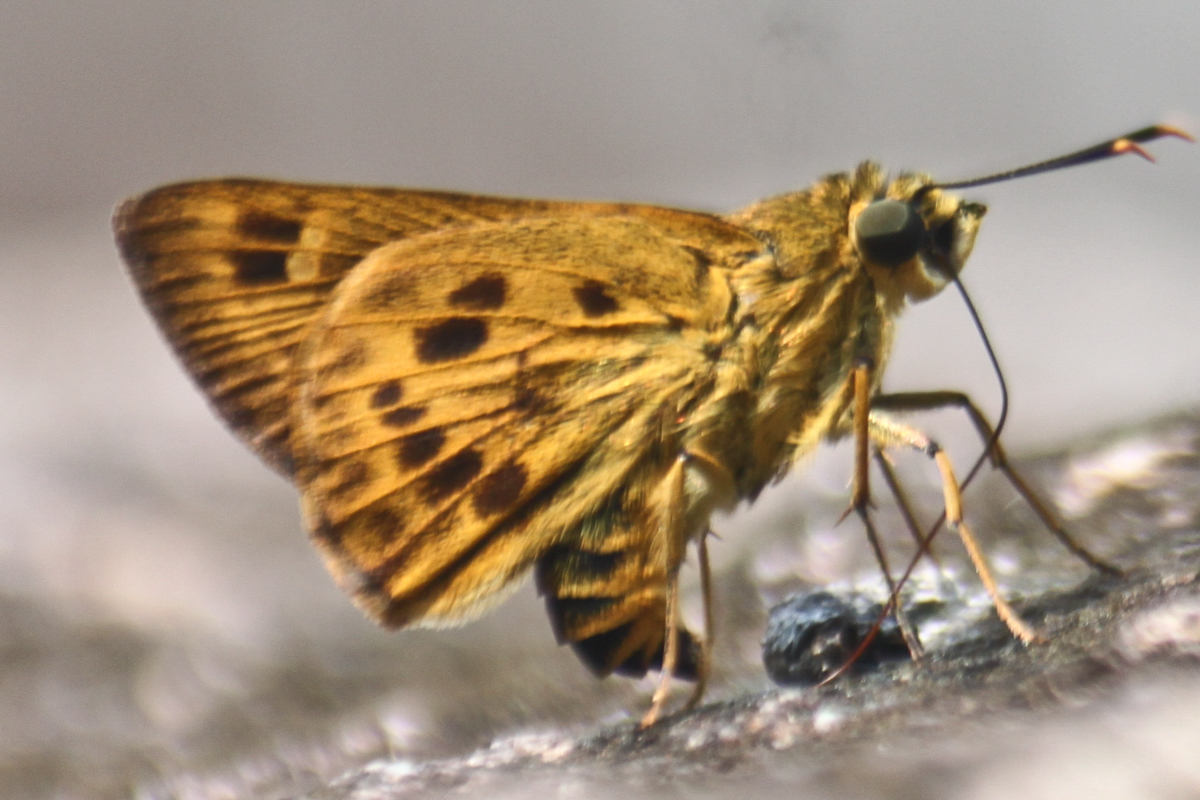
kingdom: Animalia
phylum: Arthropoda
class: Insecta
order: Lepidoptera
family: Hesperiidae
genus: Thoressa
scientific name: Thoressa masoni
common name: Golden ace
